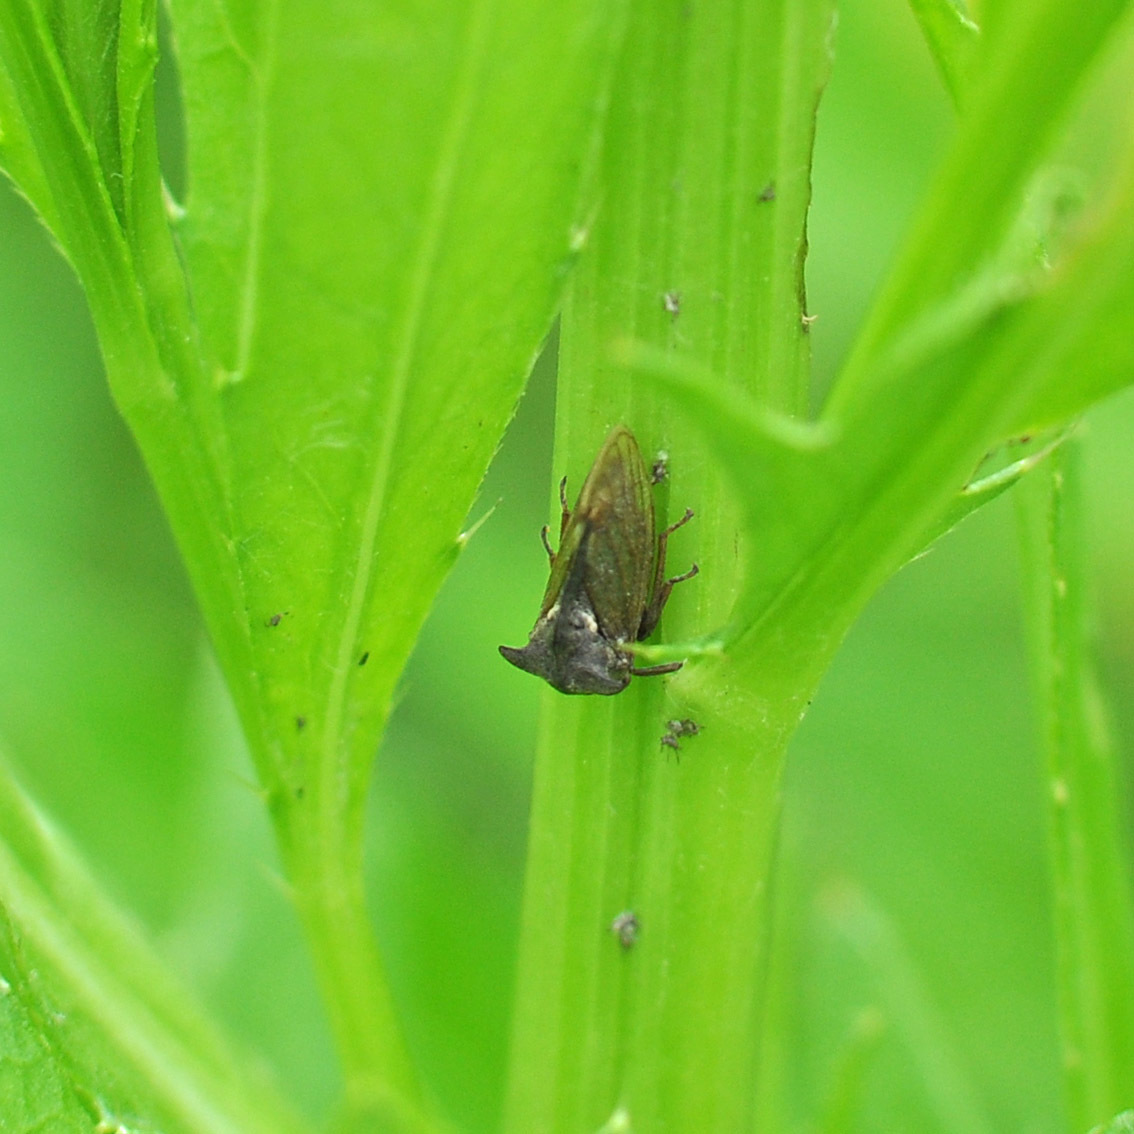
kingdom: Animalia
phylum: Arthropoda
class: Insecta
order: Hemiptera
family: Membracidae
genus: Centrotus
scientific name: Centrotus cornuta
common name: Treehopper
